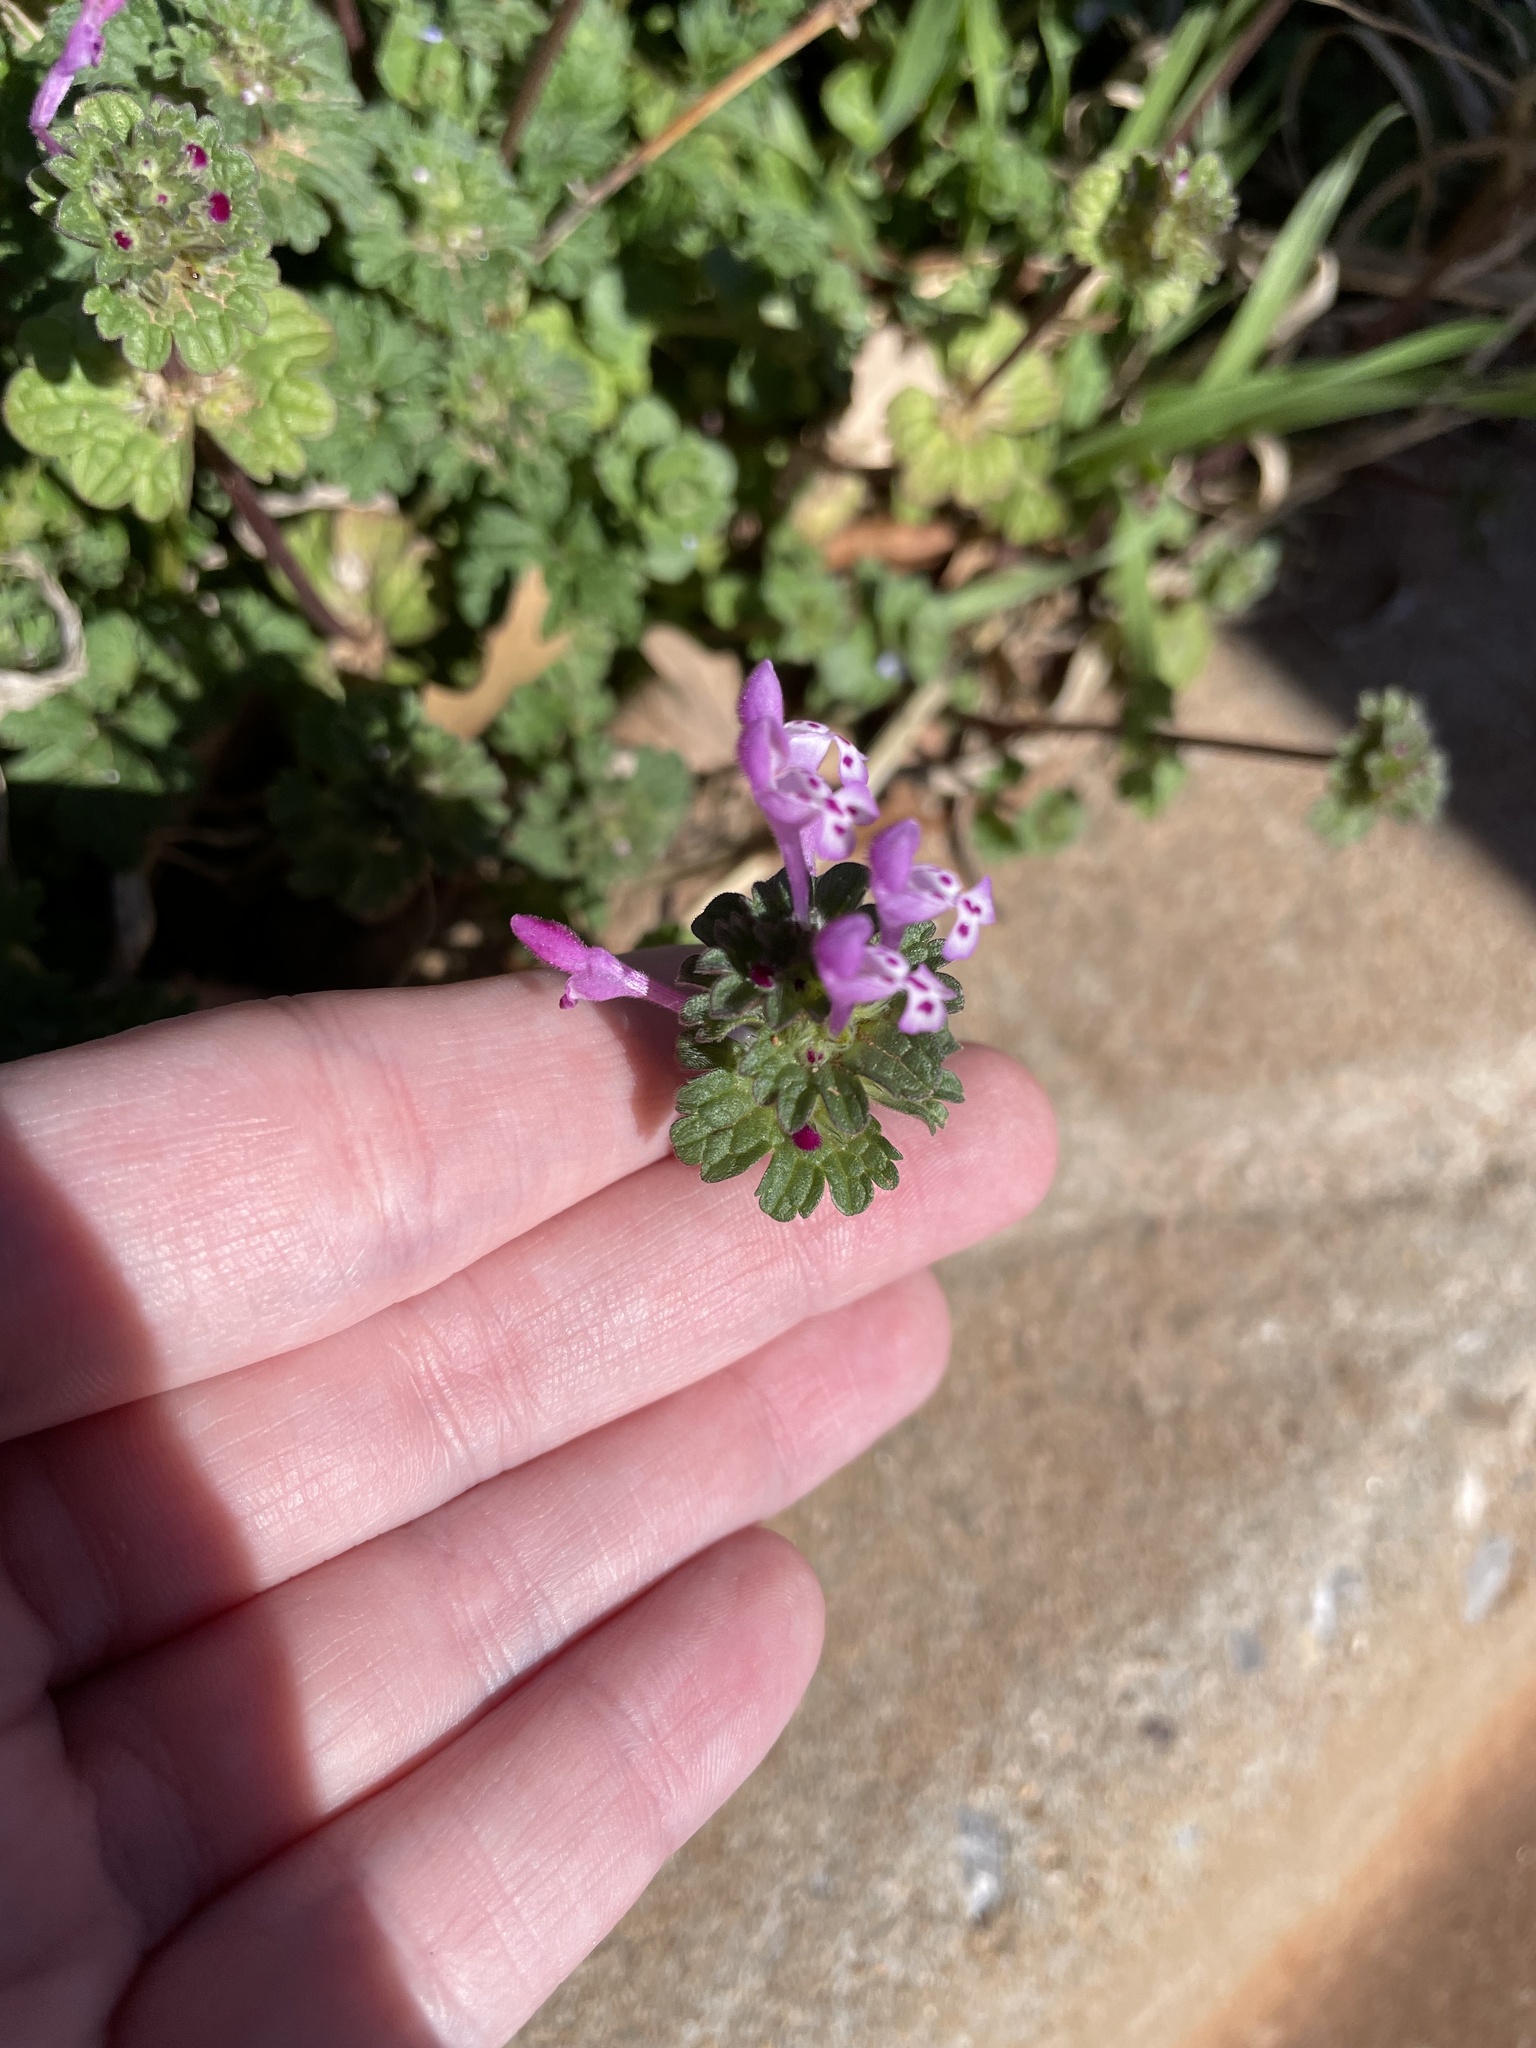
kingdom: Plantae
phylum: Tracheophyta
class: Magnoliopsida
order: Lamiales
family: Lamiaceae
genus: Lamium
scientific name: Lamium amplexicaule
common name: Henbit dead-nettle
